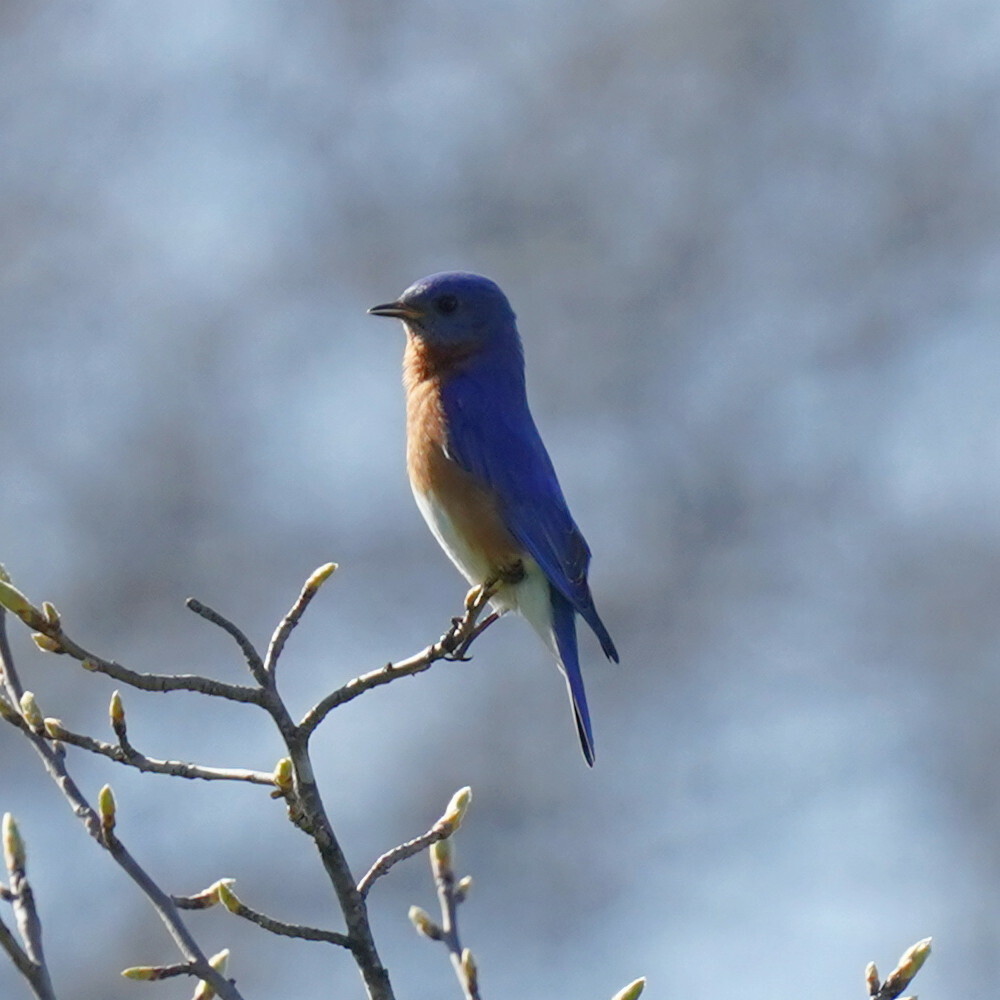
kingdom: Animalia
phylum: Chordata
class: Aves
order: Passeriformes
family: Turdidae
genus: Sialia
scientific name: Sialia sialis
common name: Eastern bluebird
